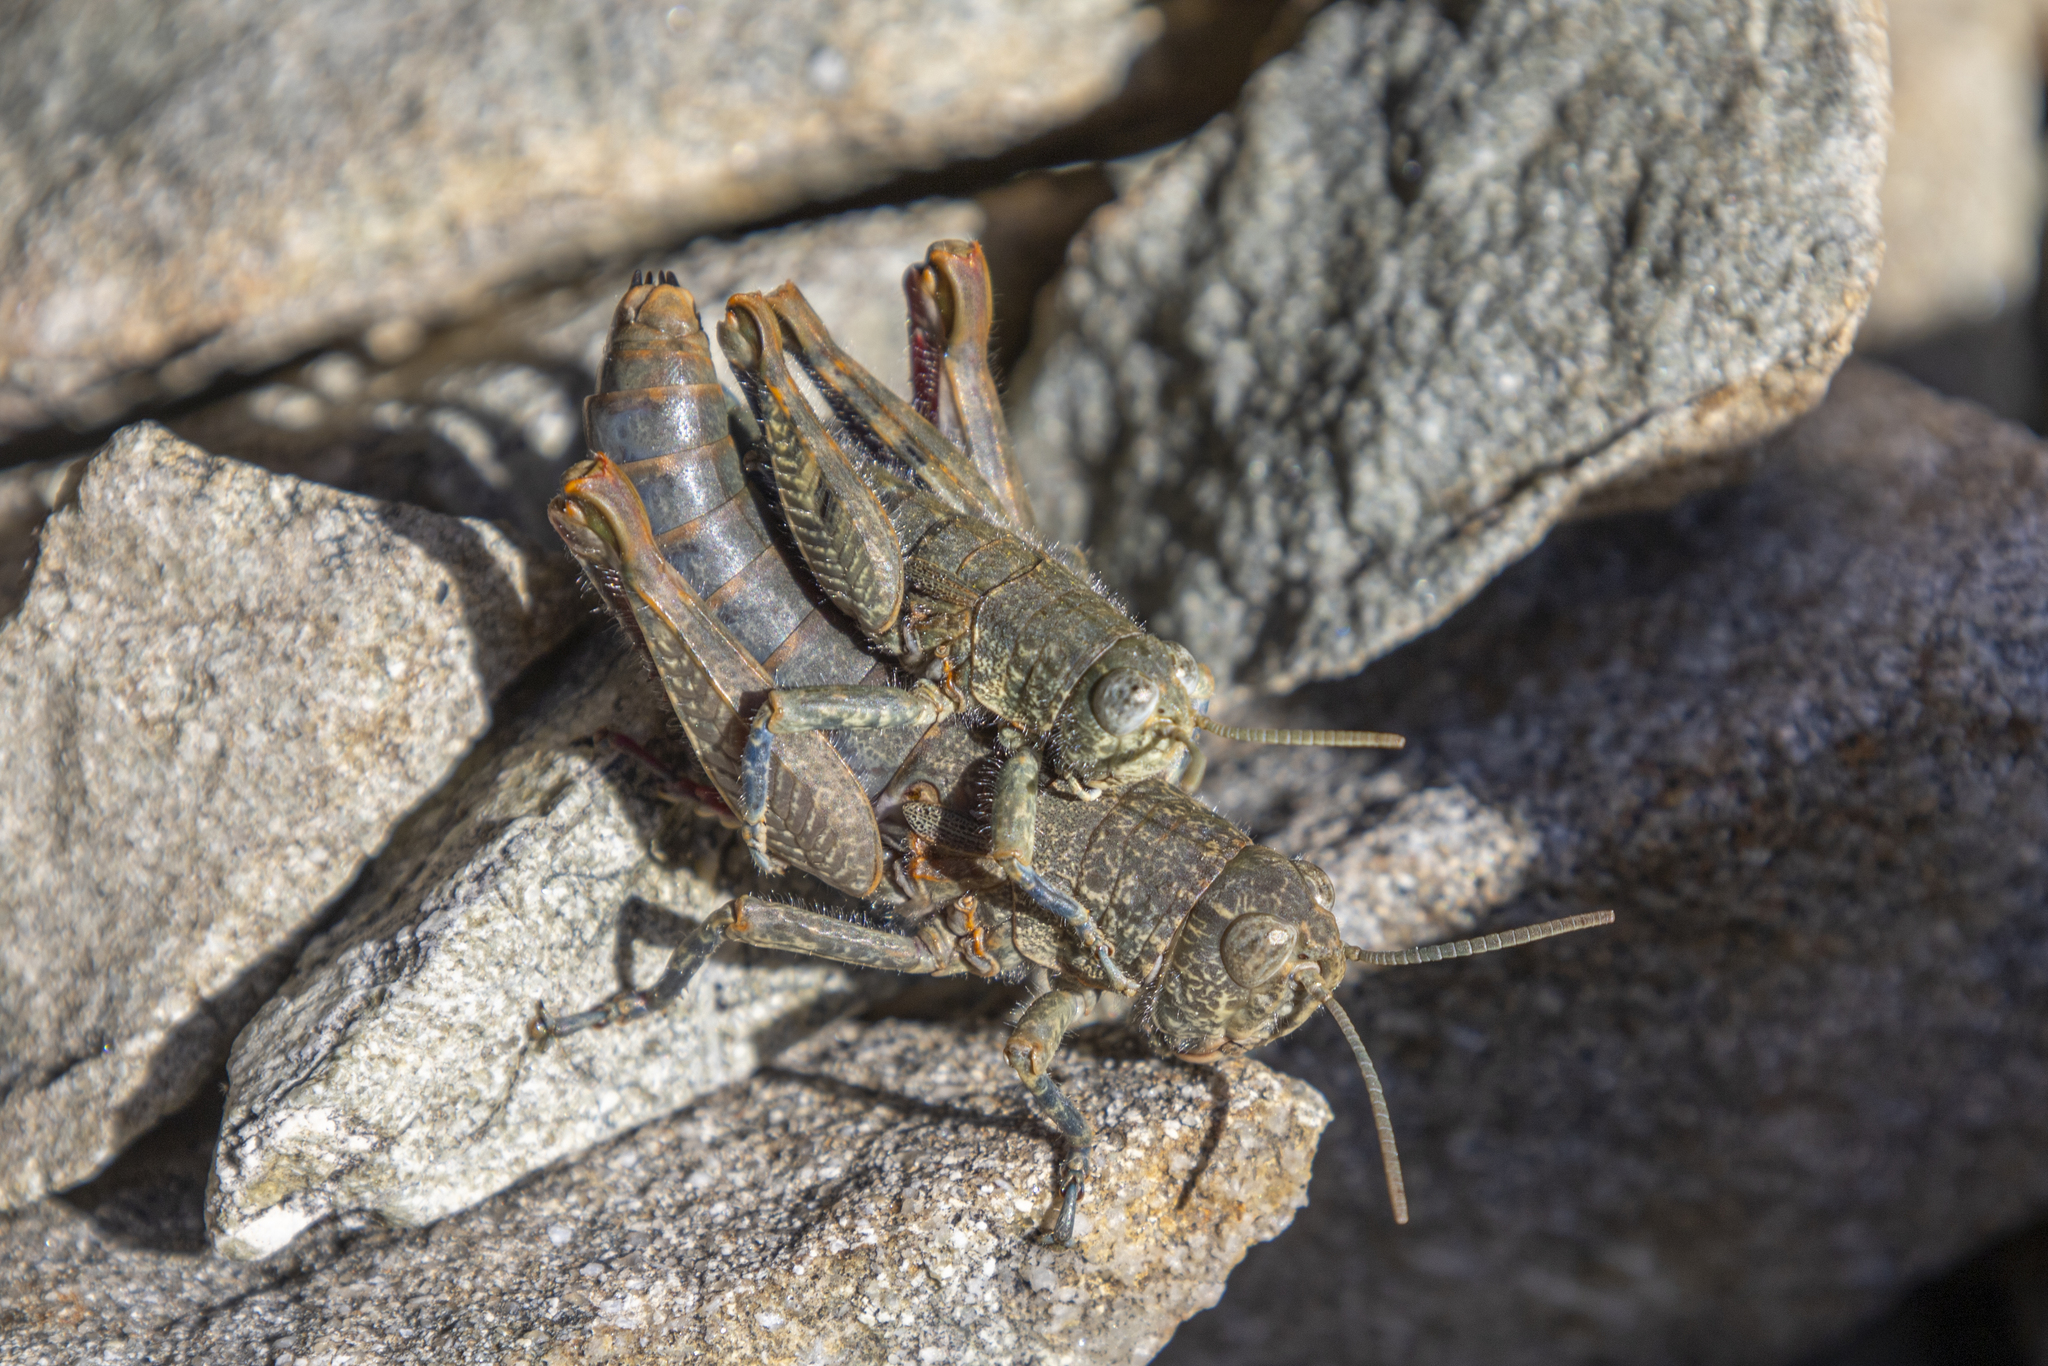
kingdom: Animalia
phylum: Arthropoda
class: Insecta
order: Orthoptera
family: Acrididae
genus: Sigaus
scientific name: Sigaus
